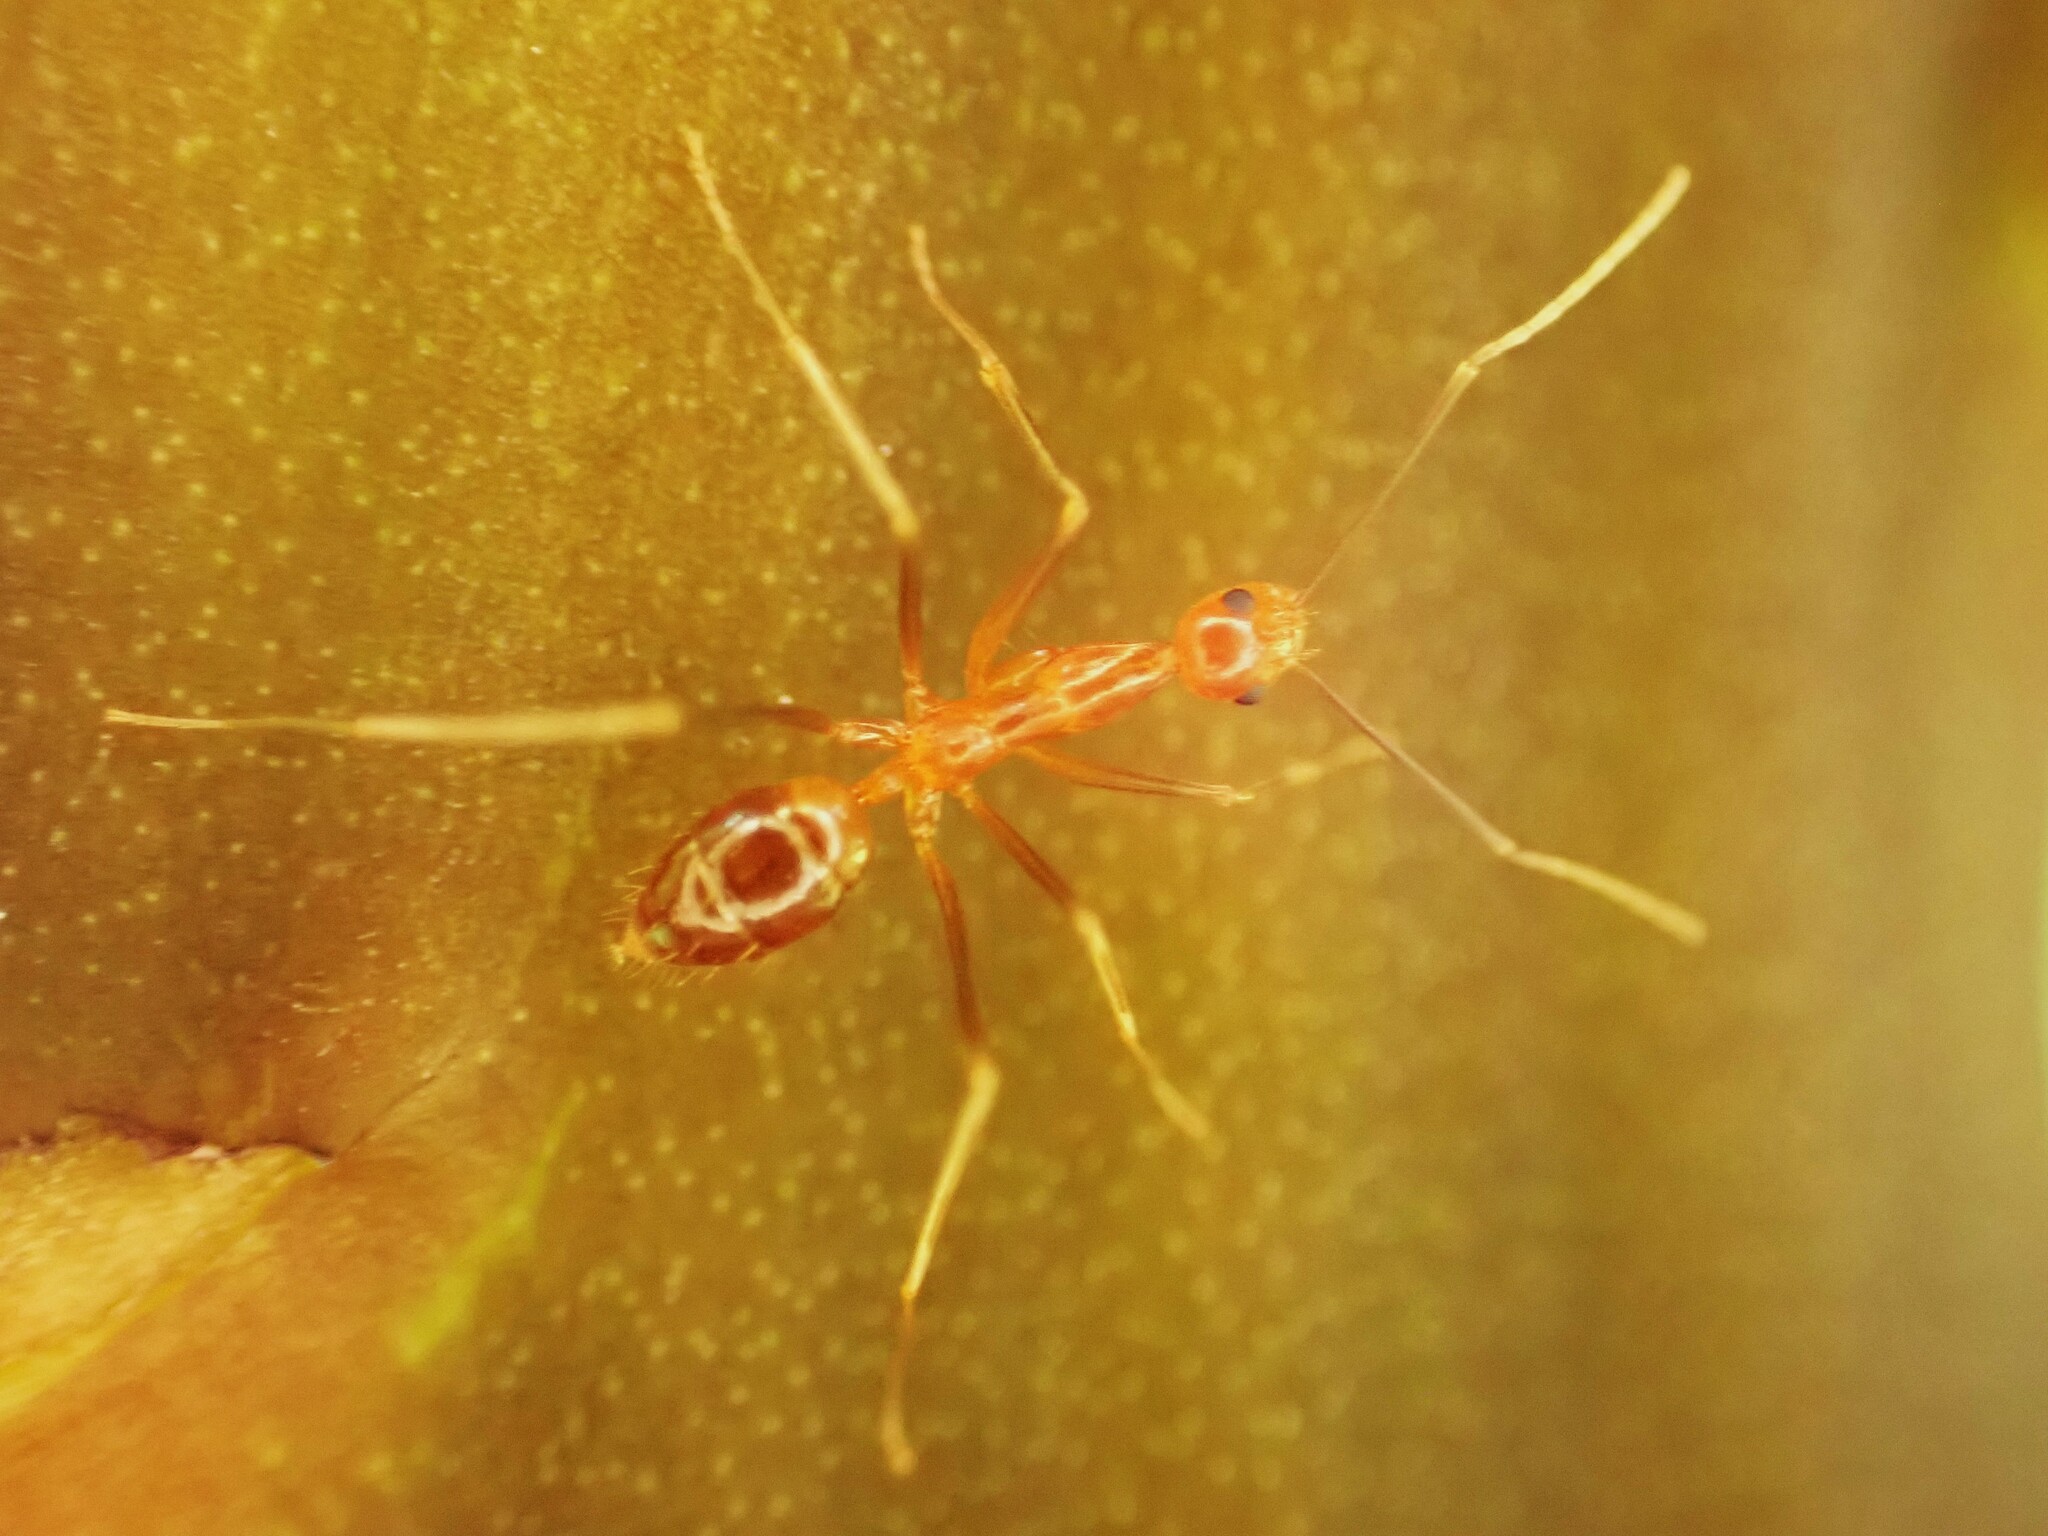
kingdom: Animalia
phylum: Arthropoda
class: Insecta
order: Hymenoptera
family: Formicidae
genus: Anoplolepis
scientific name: Anoplolepis gracilipes
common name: Ant
